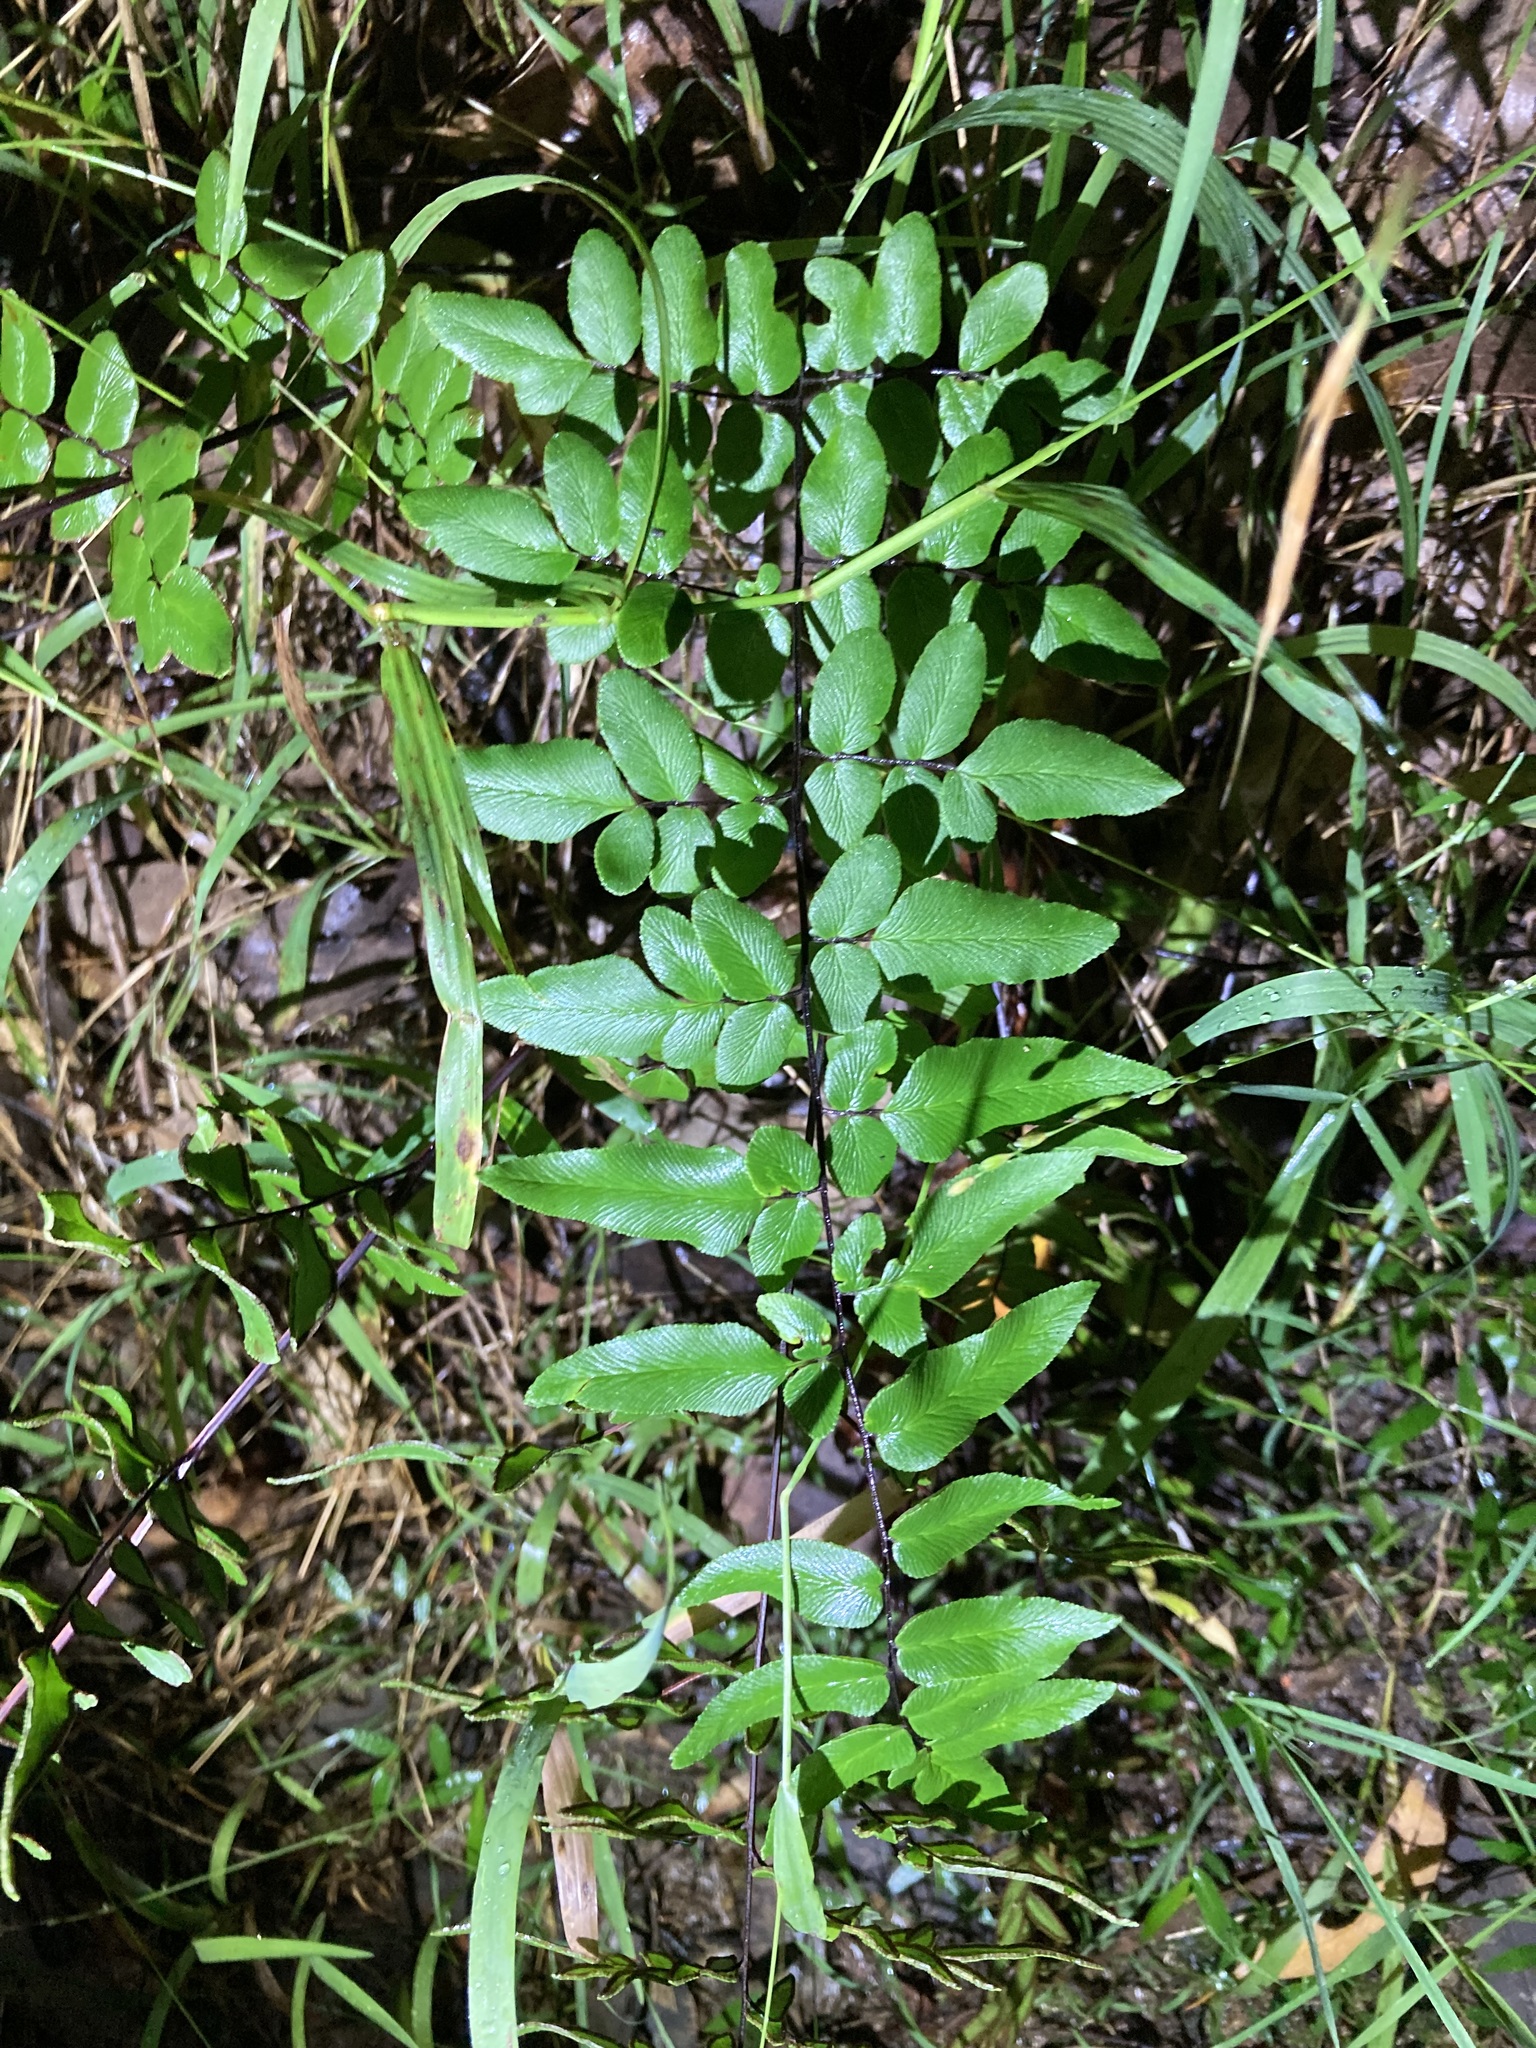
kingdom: Plantae
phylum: Tracheophyta
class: Polypodiopsida
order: Polypodiales
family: Pteridaceae
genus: Cheilanthes
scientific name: Cheilanthes viridis
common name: Green cliffbrake
